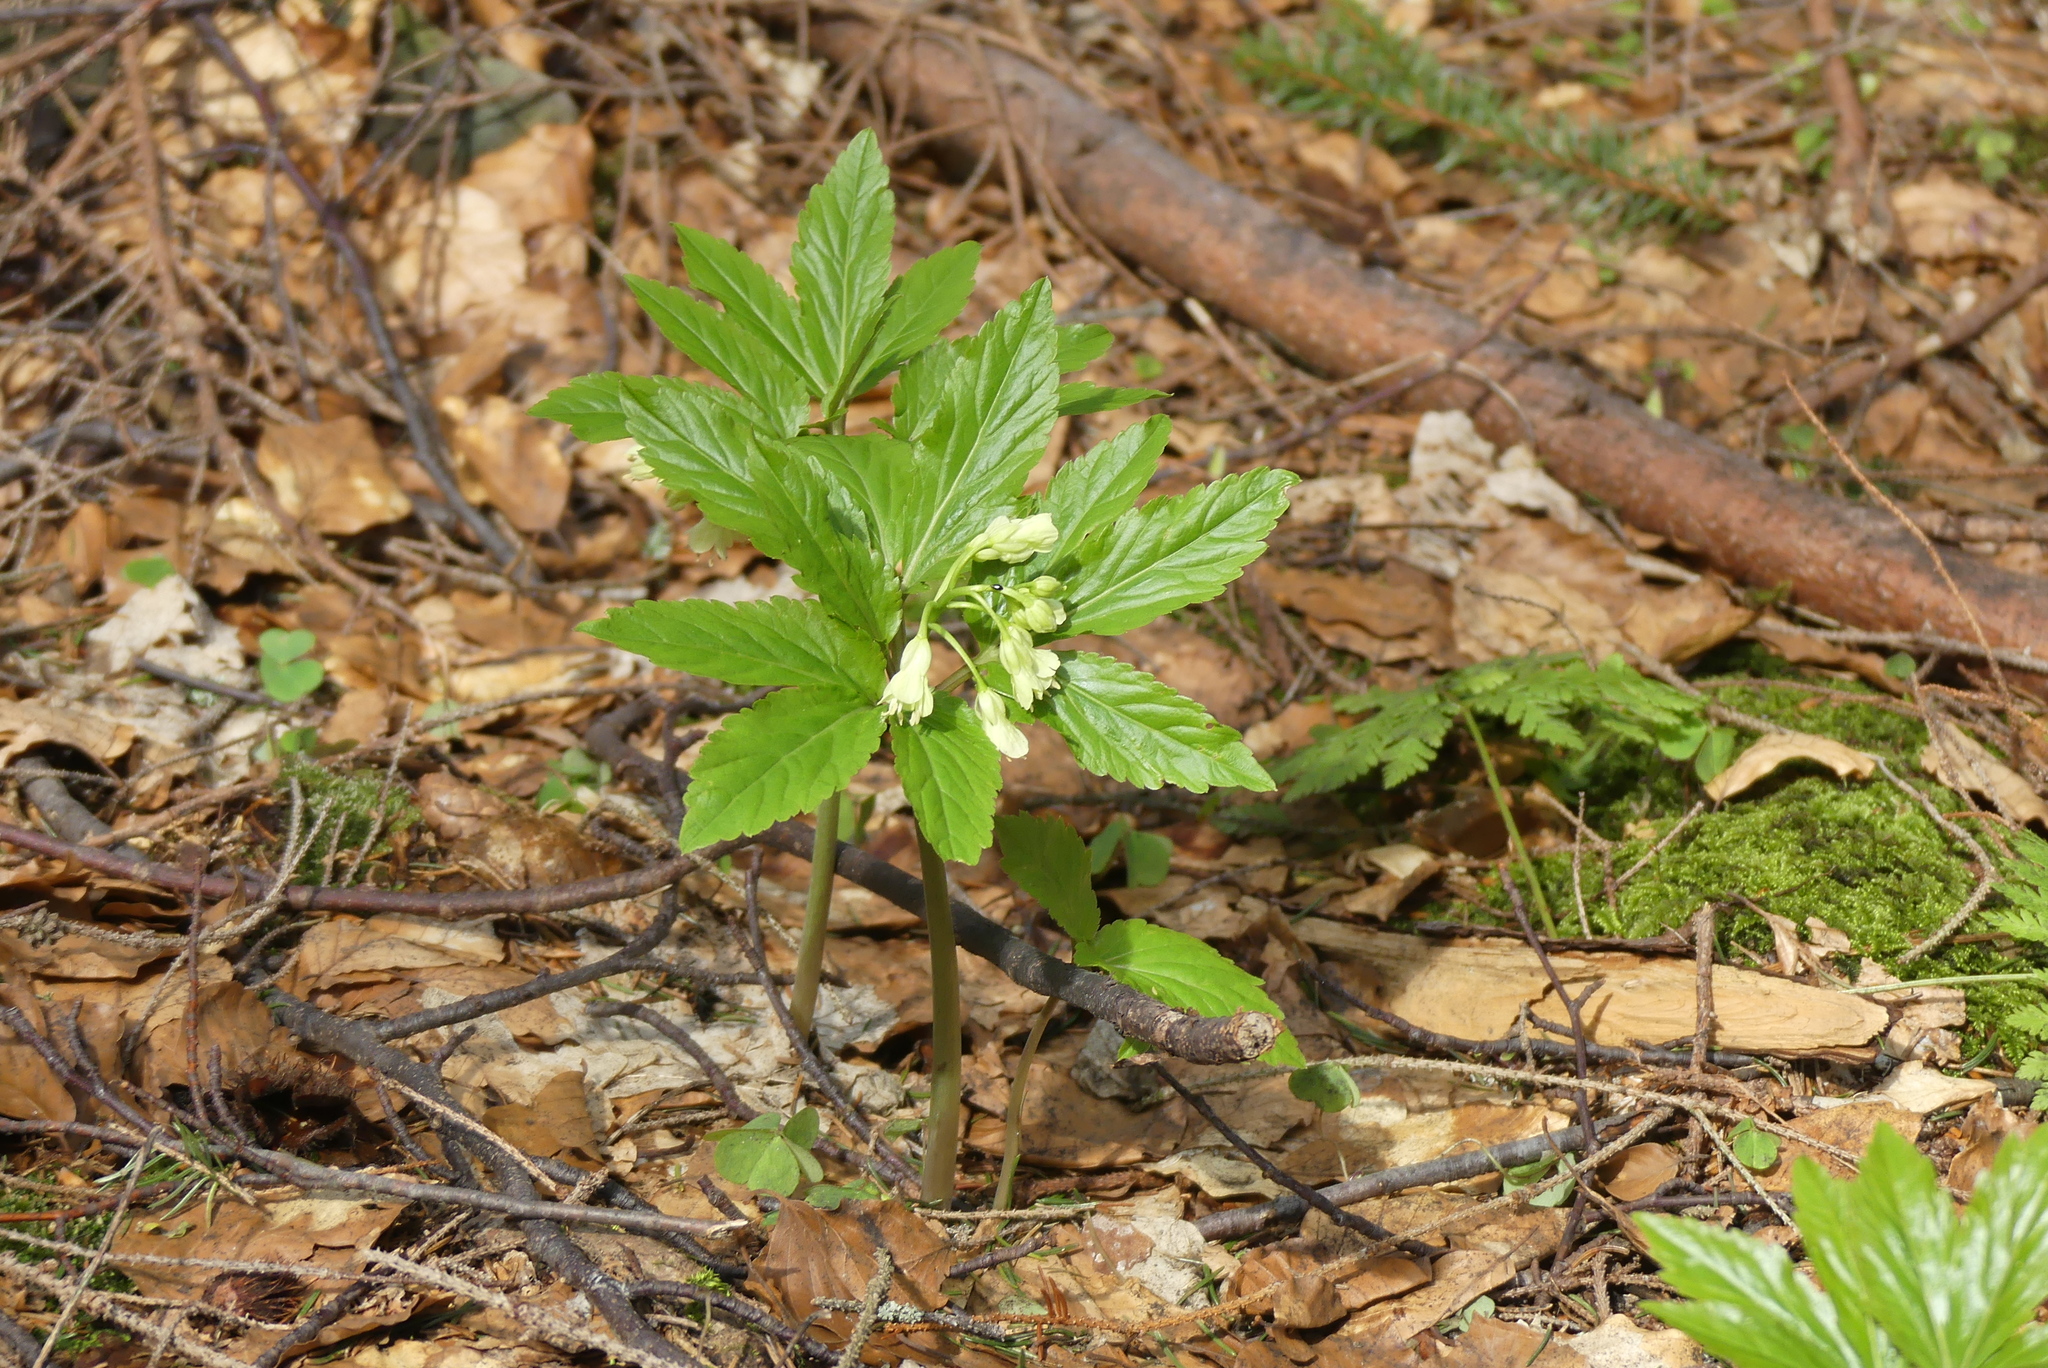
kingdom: Plantae
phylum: Tracheophyta
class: Magnoliopsida
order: Brassicales
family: Brassicaceae
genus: Cardamine
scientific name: Cardamine enneaphyllos
